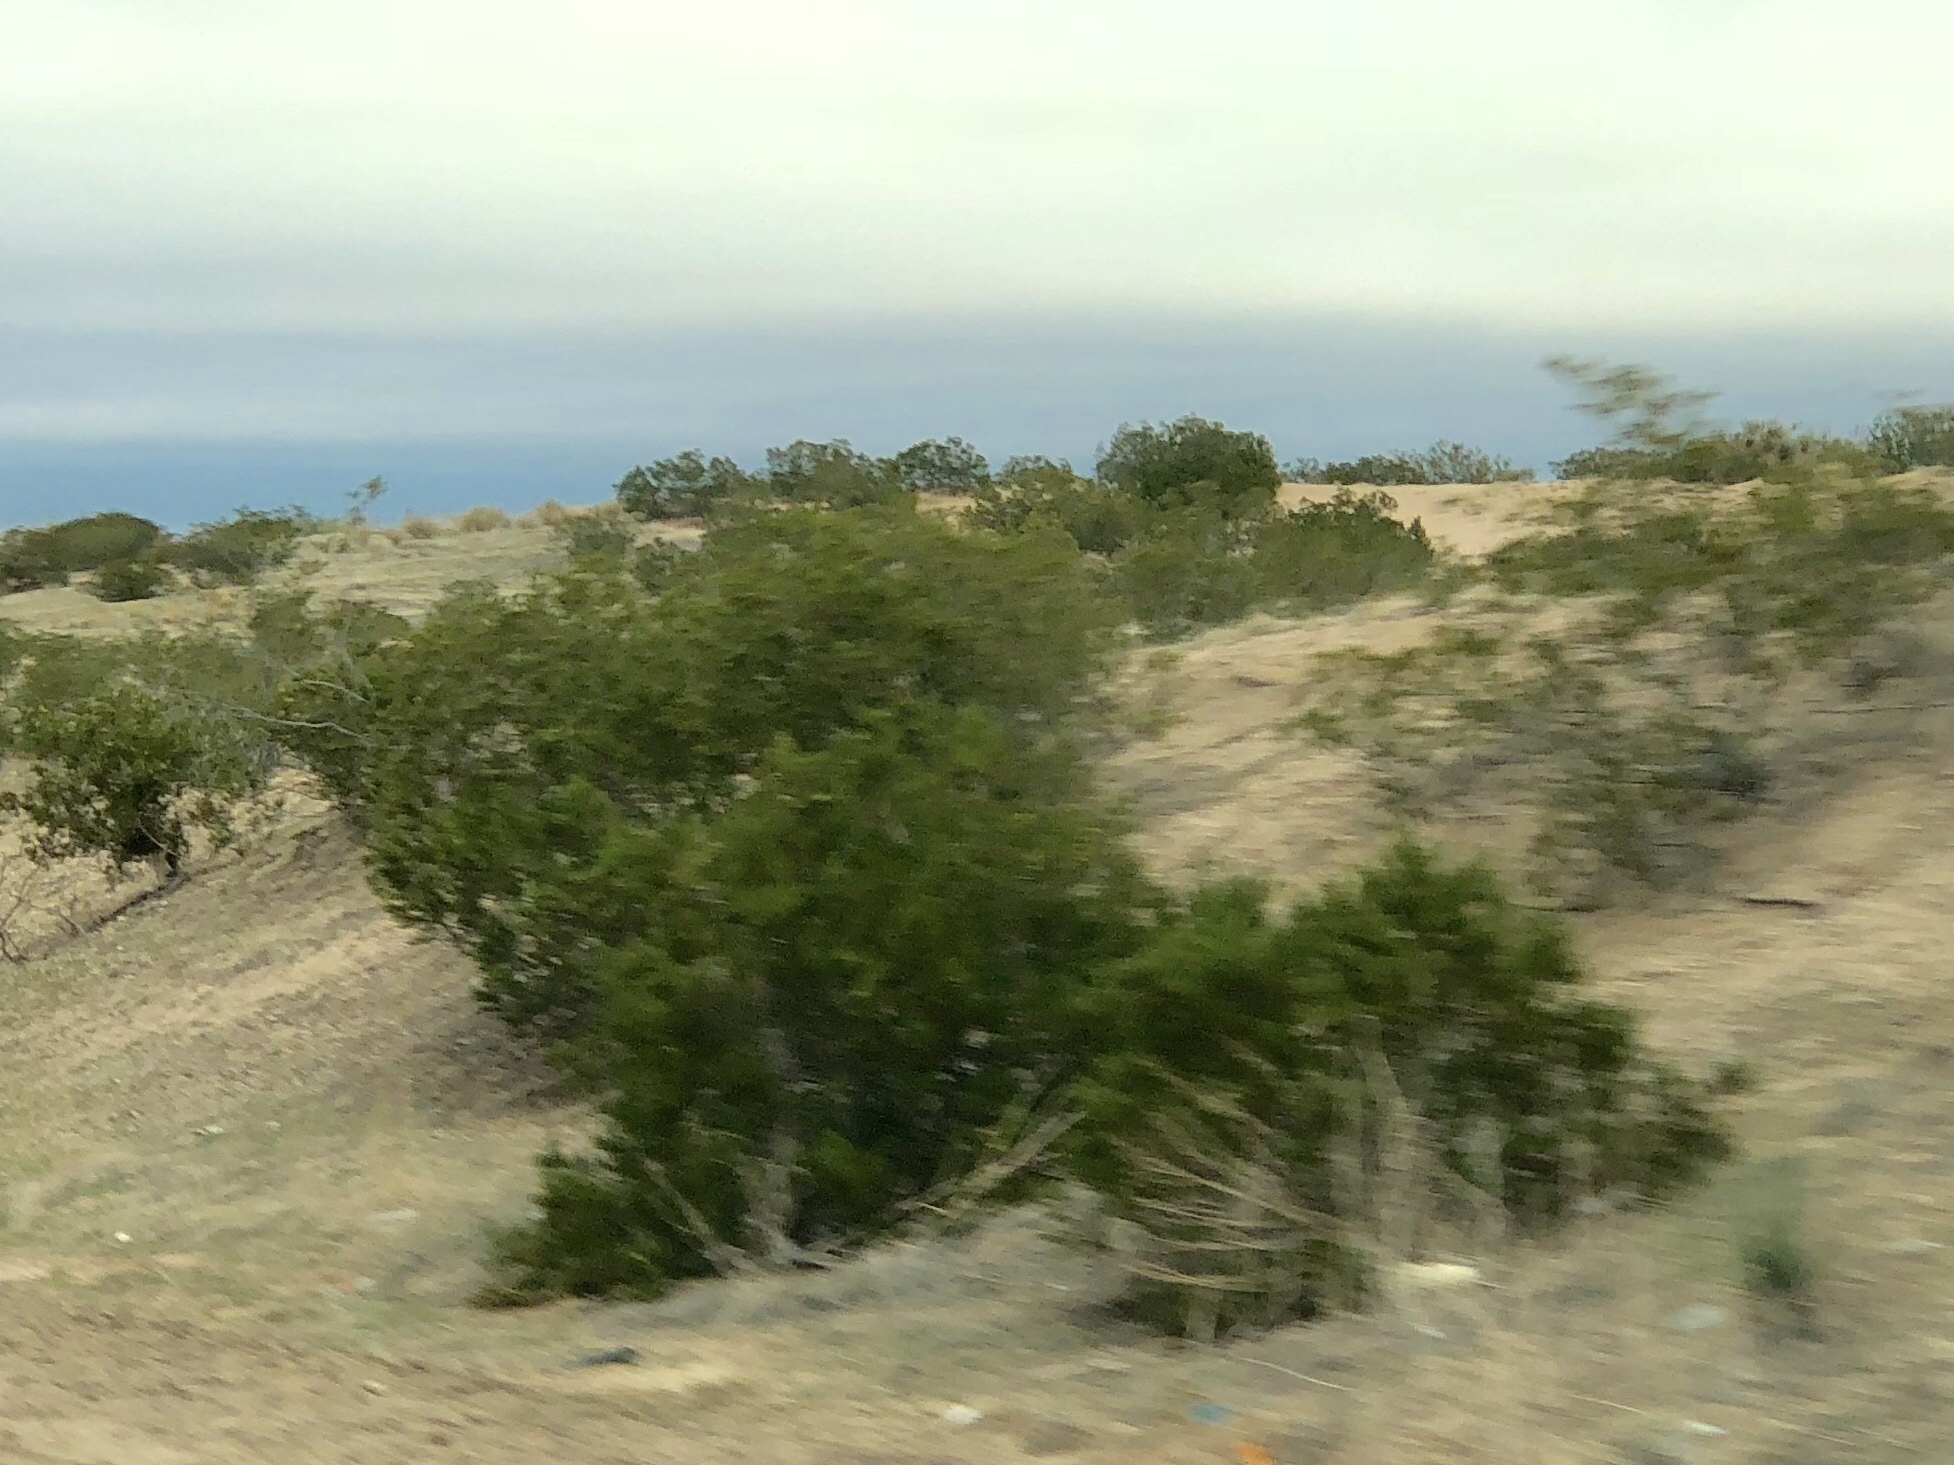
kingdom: Plantae
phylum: Tracheophyta
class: Magnoliopsida
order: Zygophyllales
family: Zygophyllaceae
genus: Larrea
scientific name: Larrea tridentata
